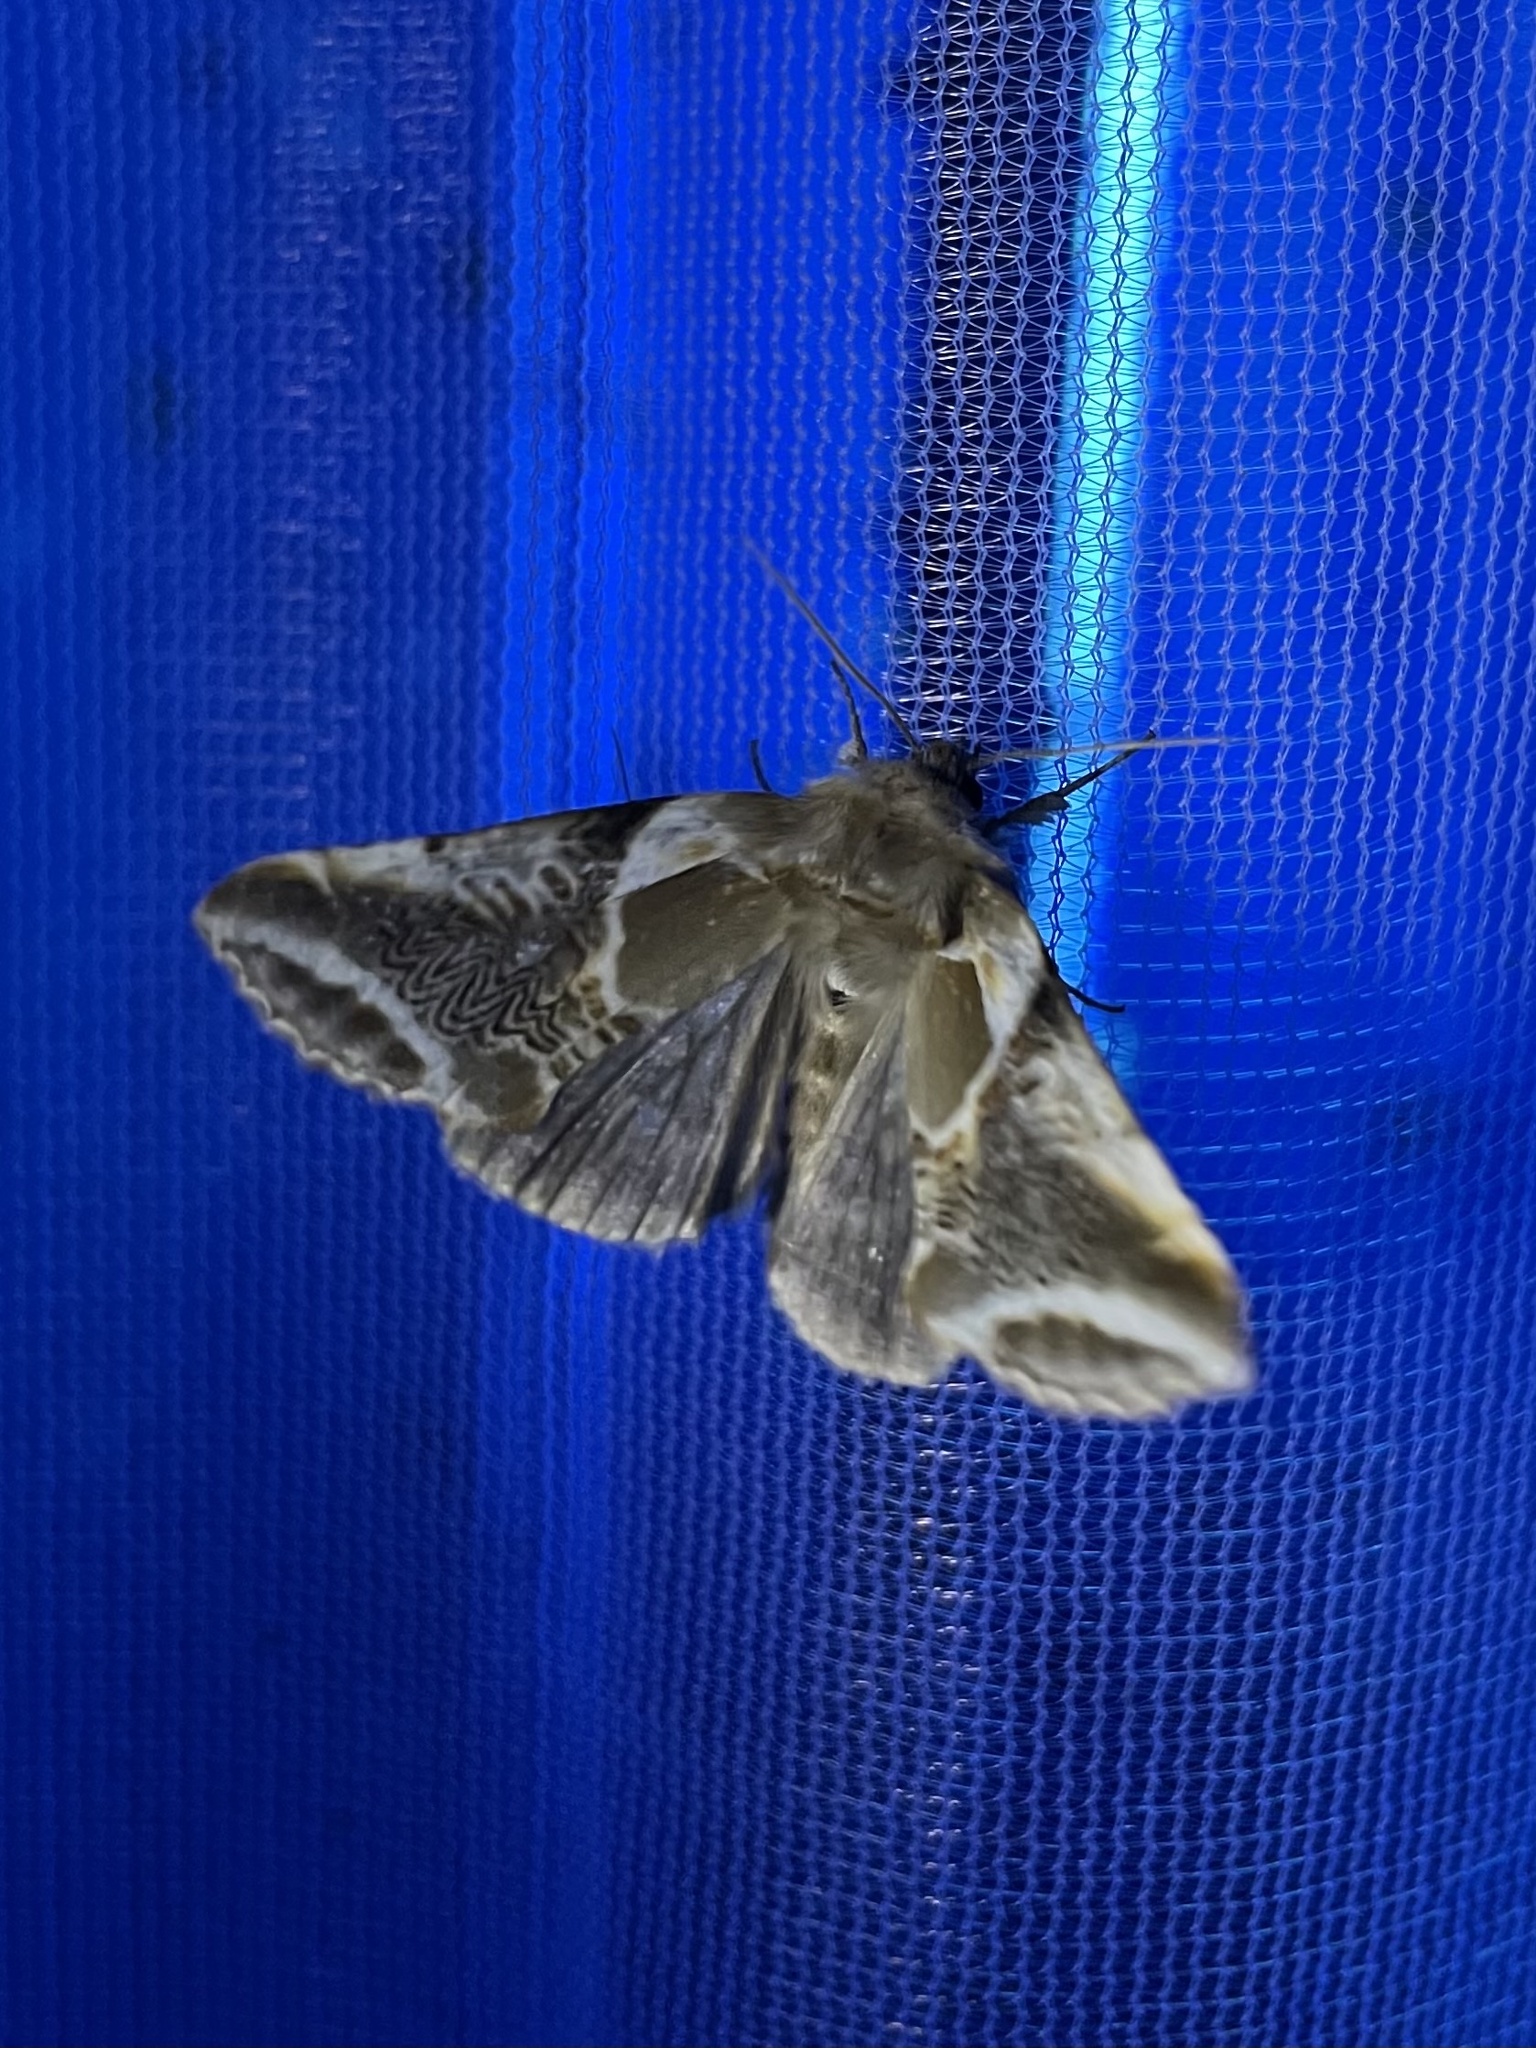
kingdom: Animalia
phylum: Arthropoda
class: Insecta
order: Lepidoptera
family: Drepanidae
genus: Habrosyne
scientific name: Habrosyne scripta
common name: Lettered habrosyne moth
